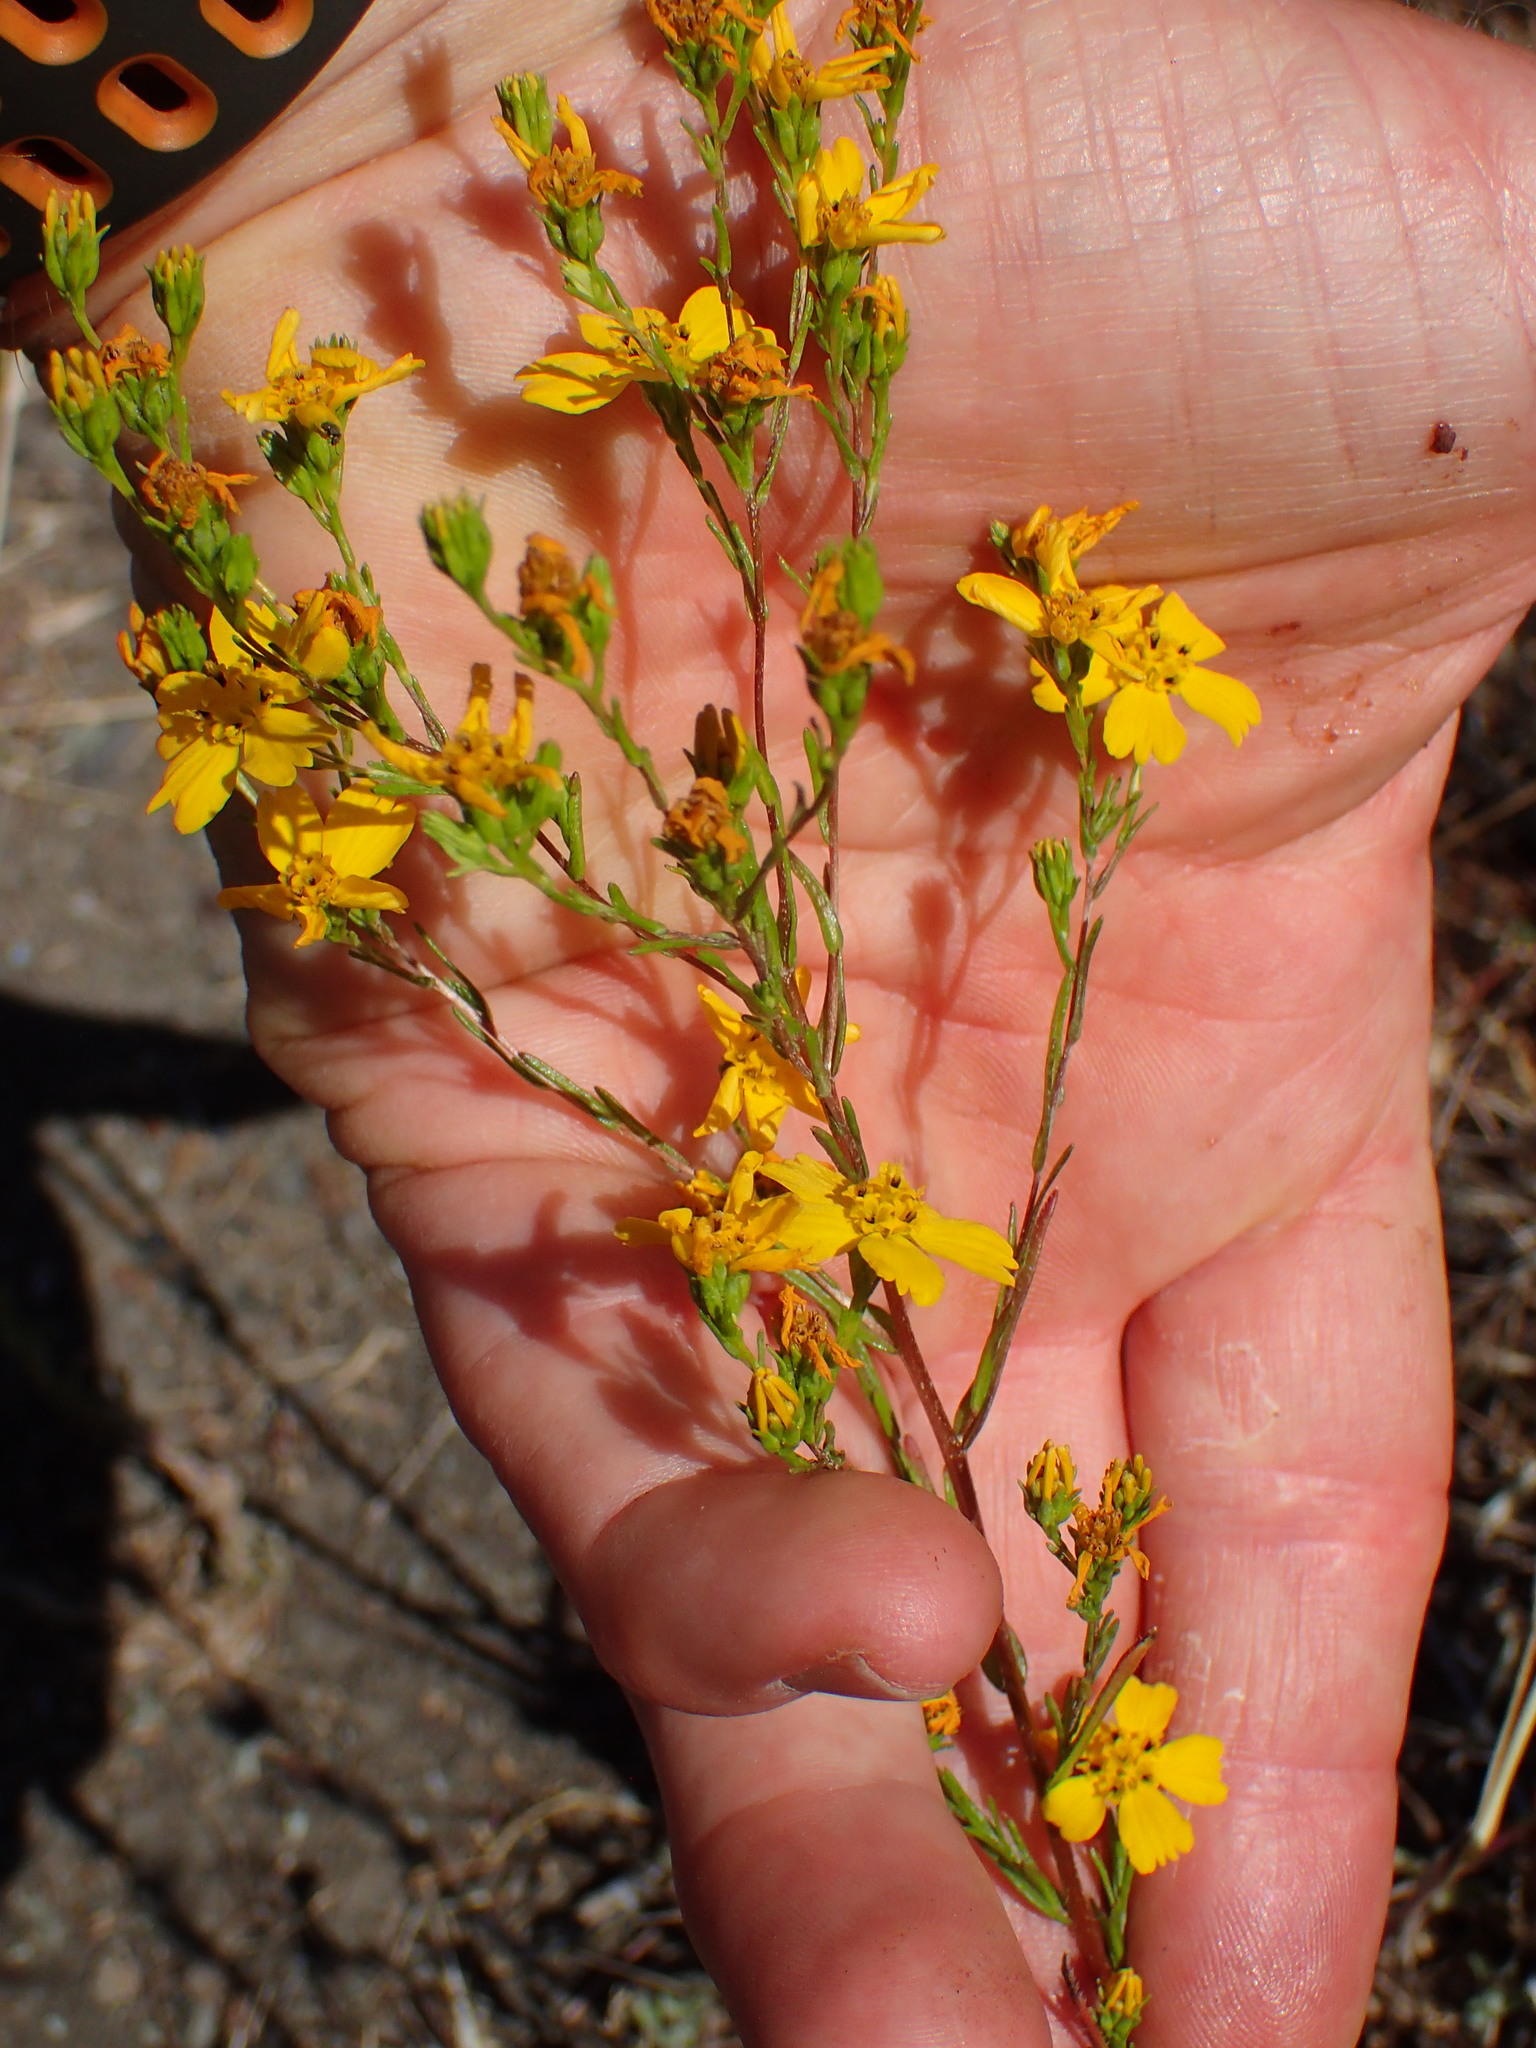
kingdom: Plantae
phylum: Tracheophyta
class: Magnoliopsida
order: Asterales
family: Asteraceae
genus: Deinandra
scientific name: Deinandra fasciculata
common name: Clustered tarweed
